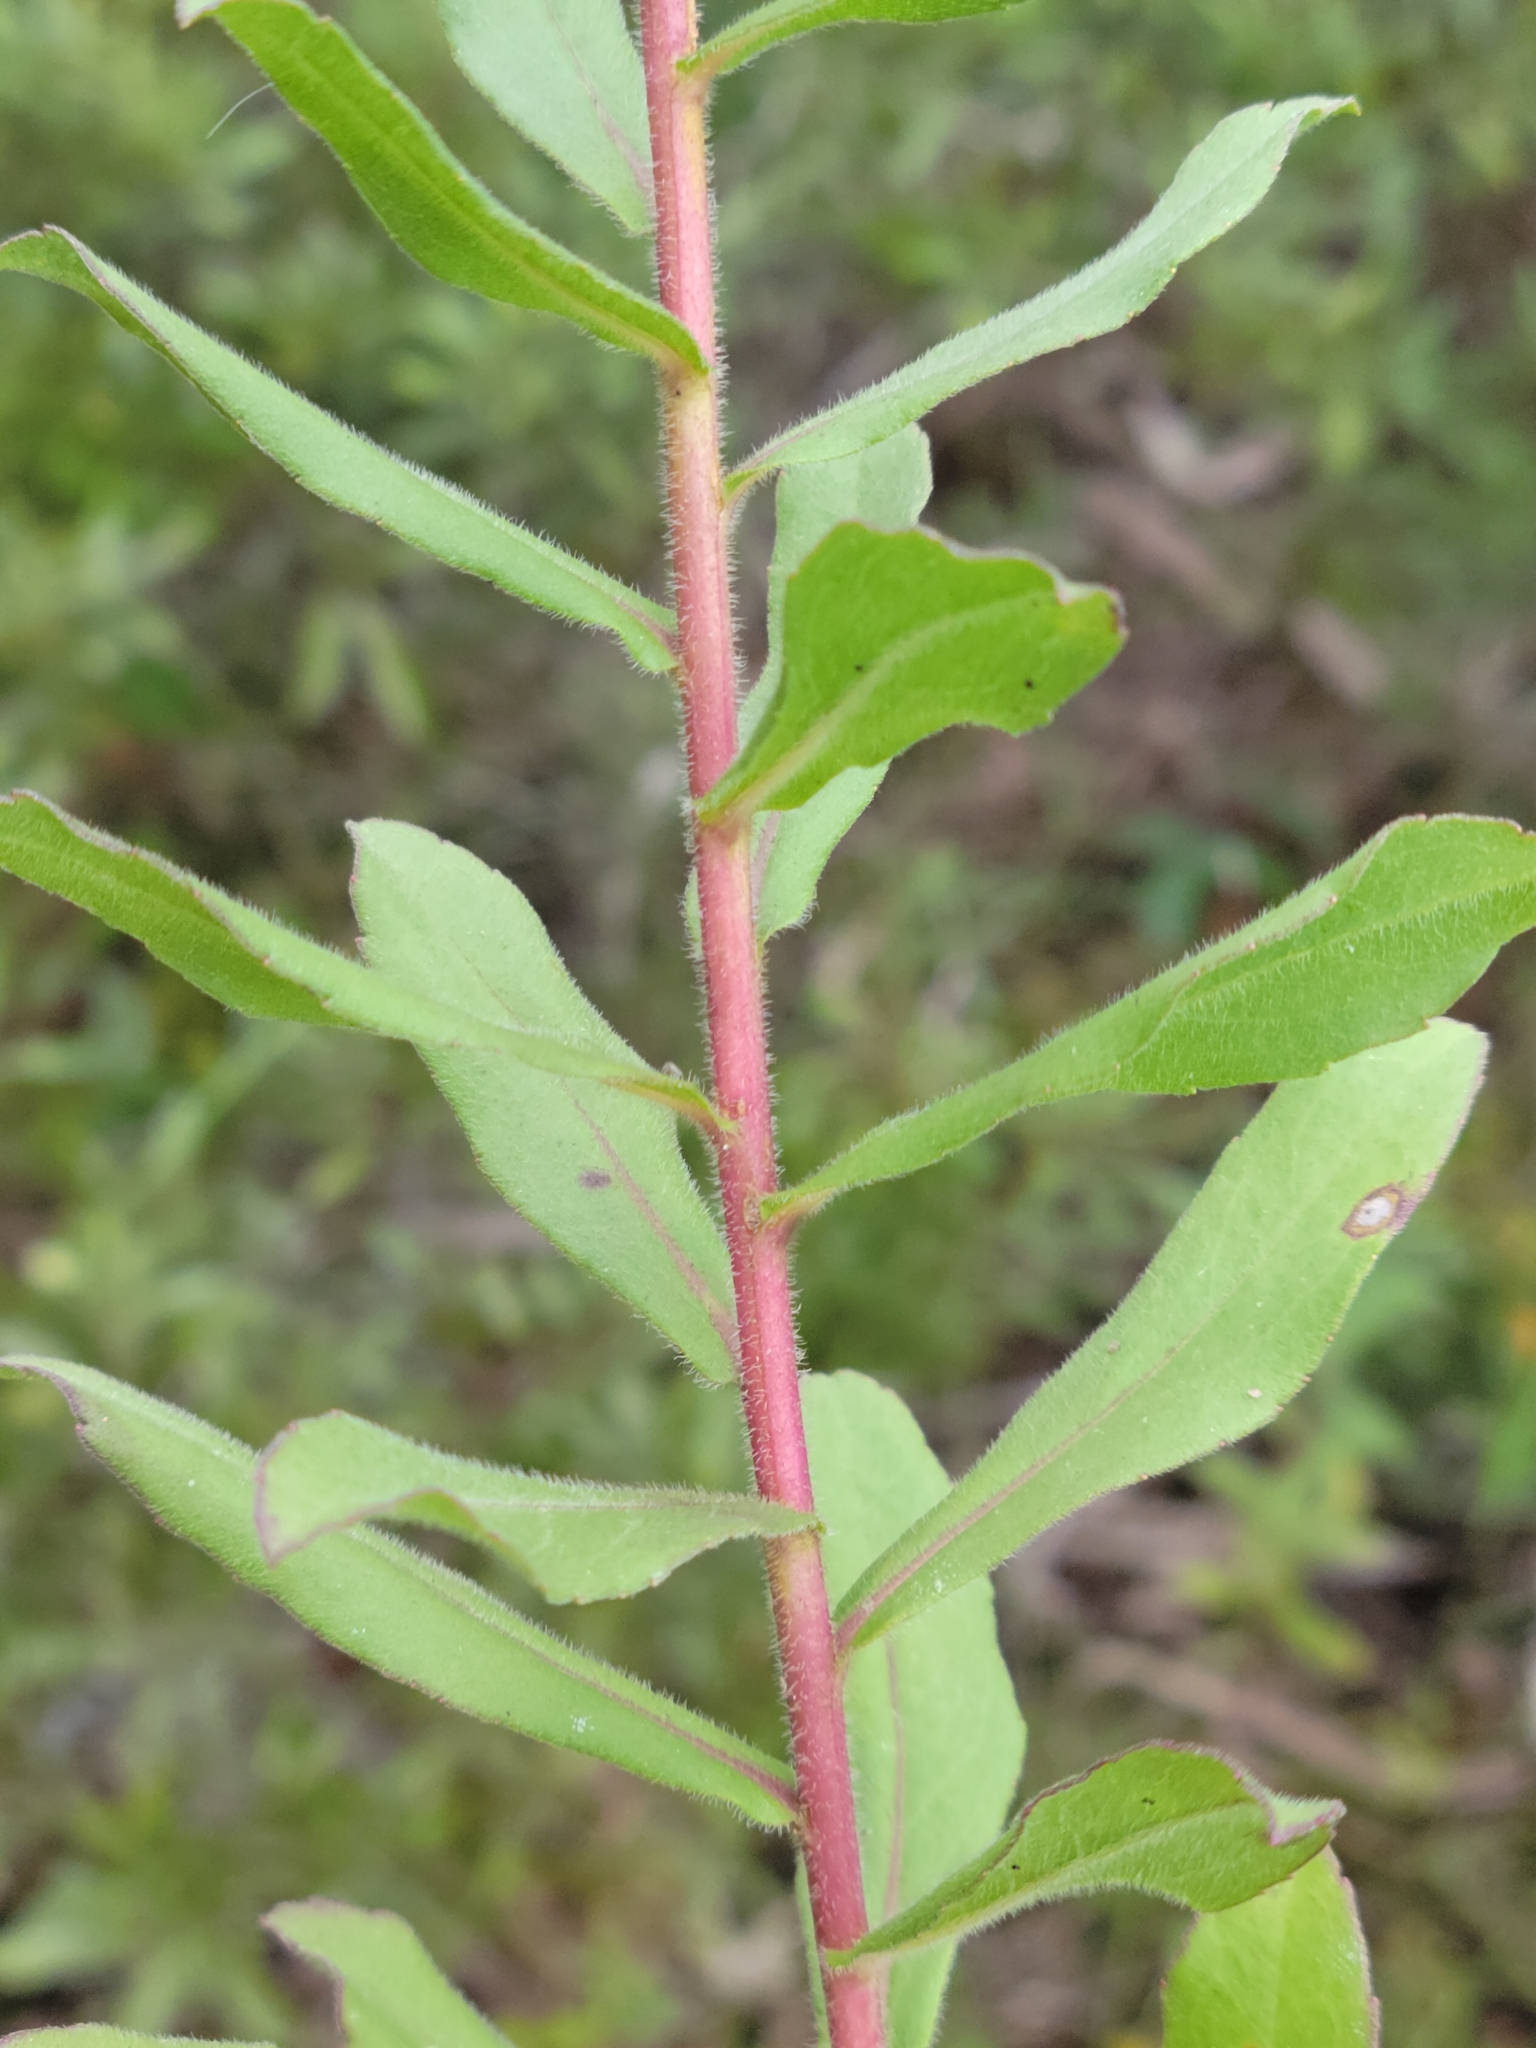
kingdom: Plantae
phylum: Tracheophyta
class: Magnoliopsida
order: Asterales
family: Asteraceae
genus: Solidago
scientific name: Solidago fistulosa
